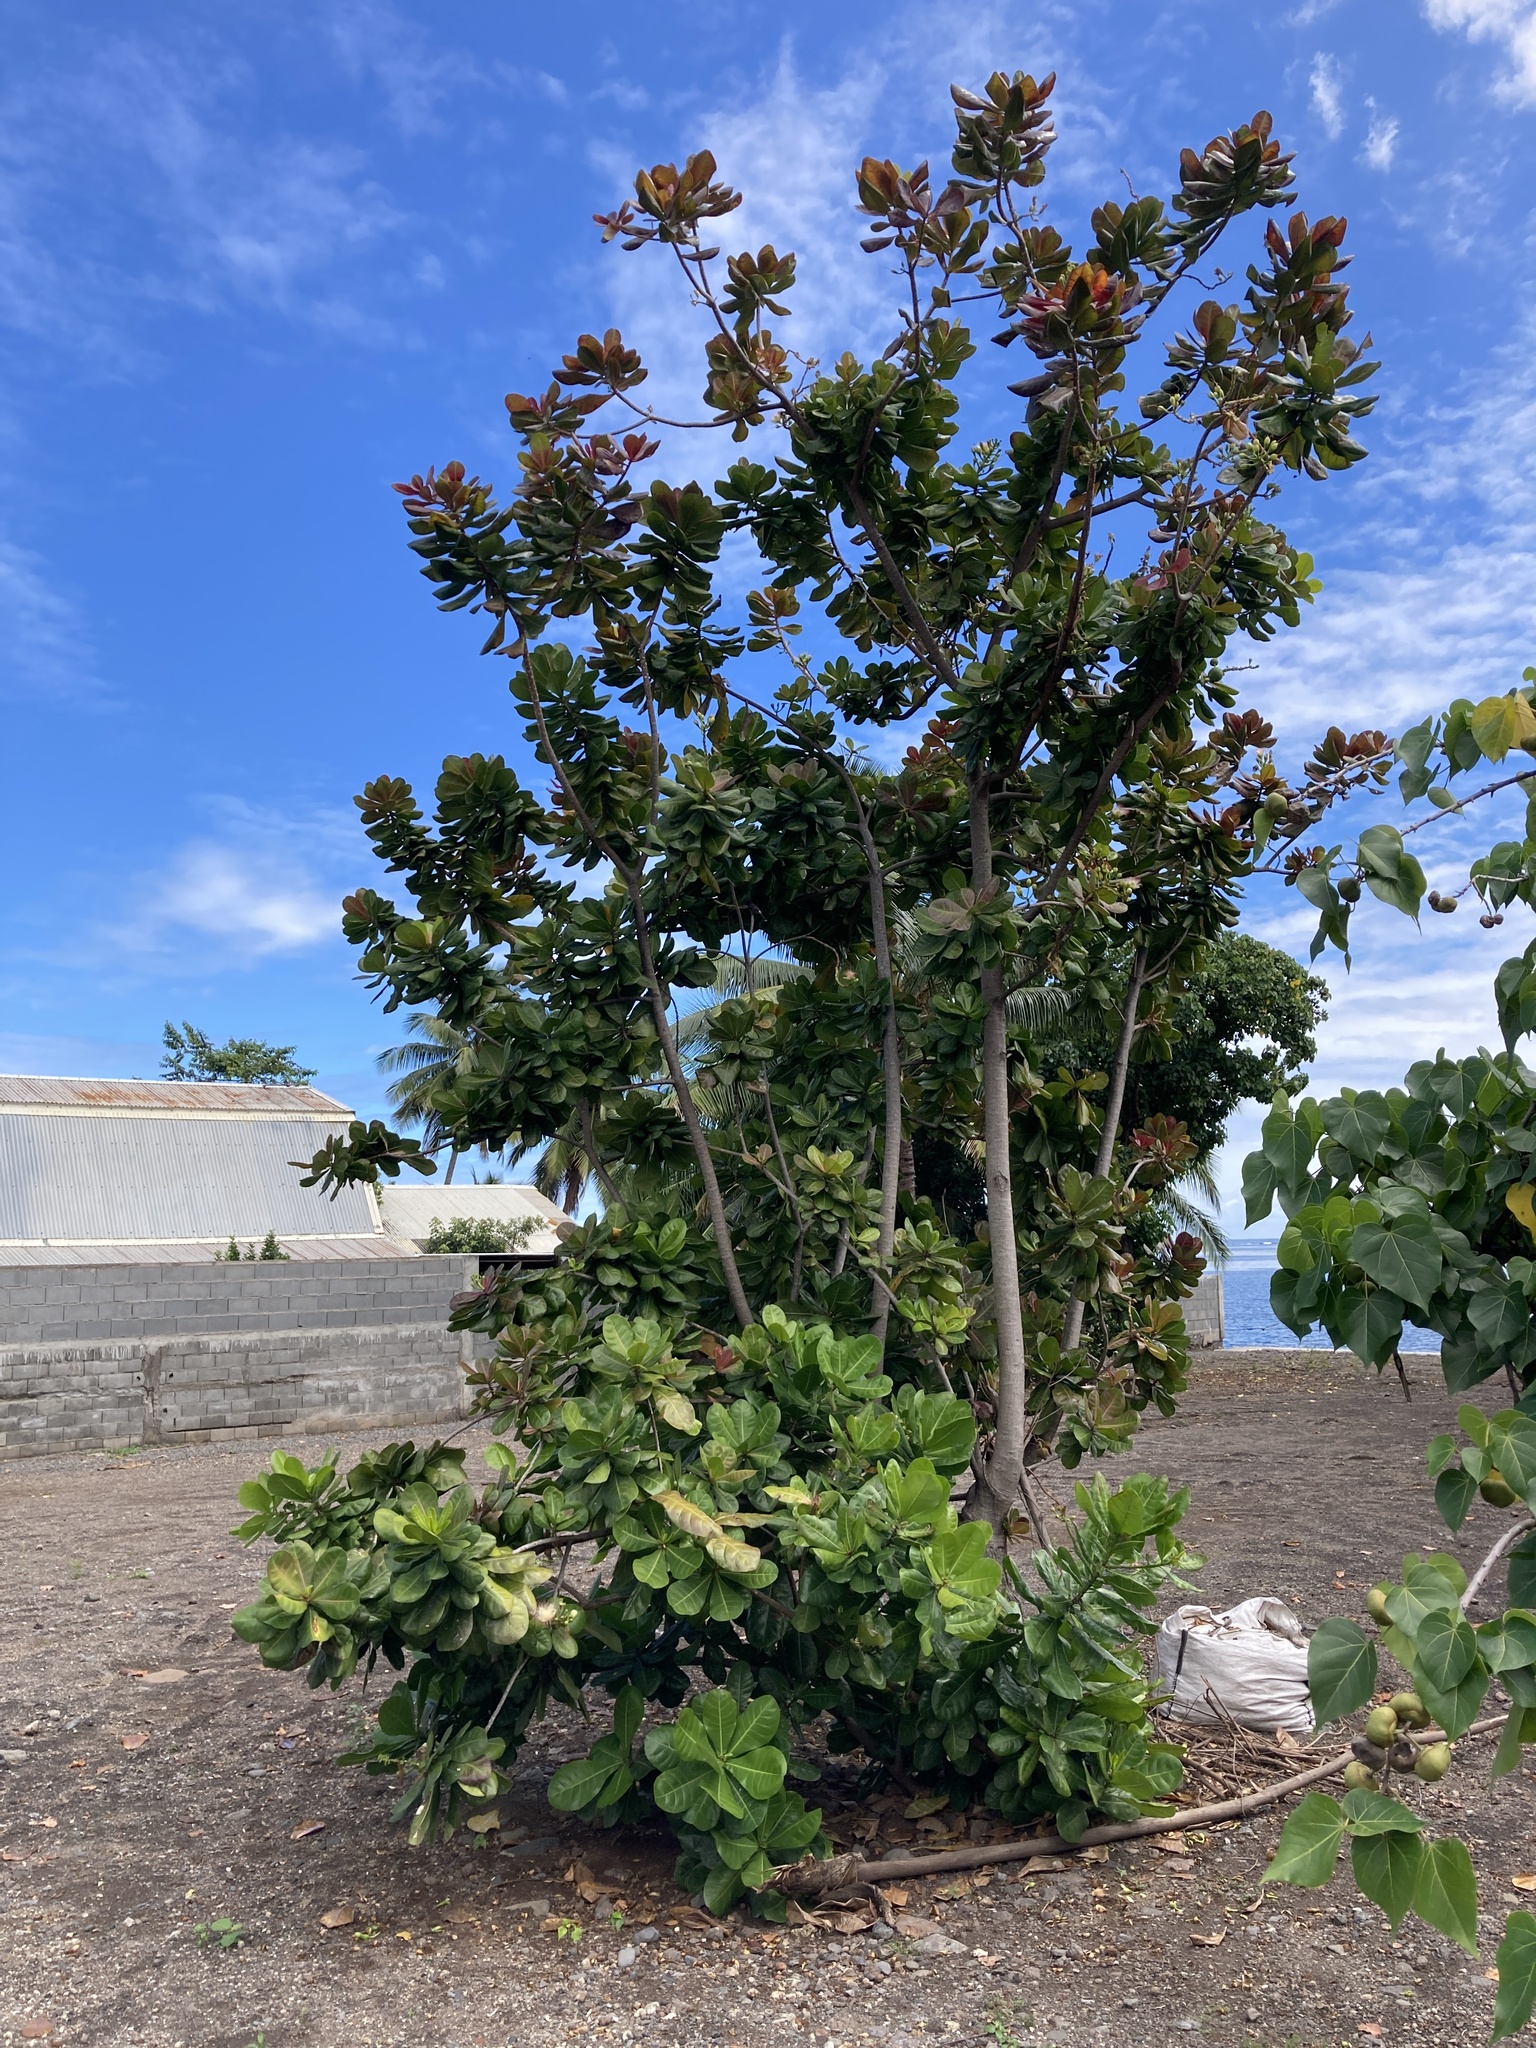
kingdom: Plantae
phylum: Tracheophyta
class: Magnoliopsida
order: Ericales
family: Lecythidaceae
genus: Barringtonia
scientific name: Barringtonia asiatica
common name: Mango-pine
